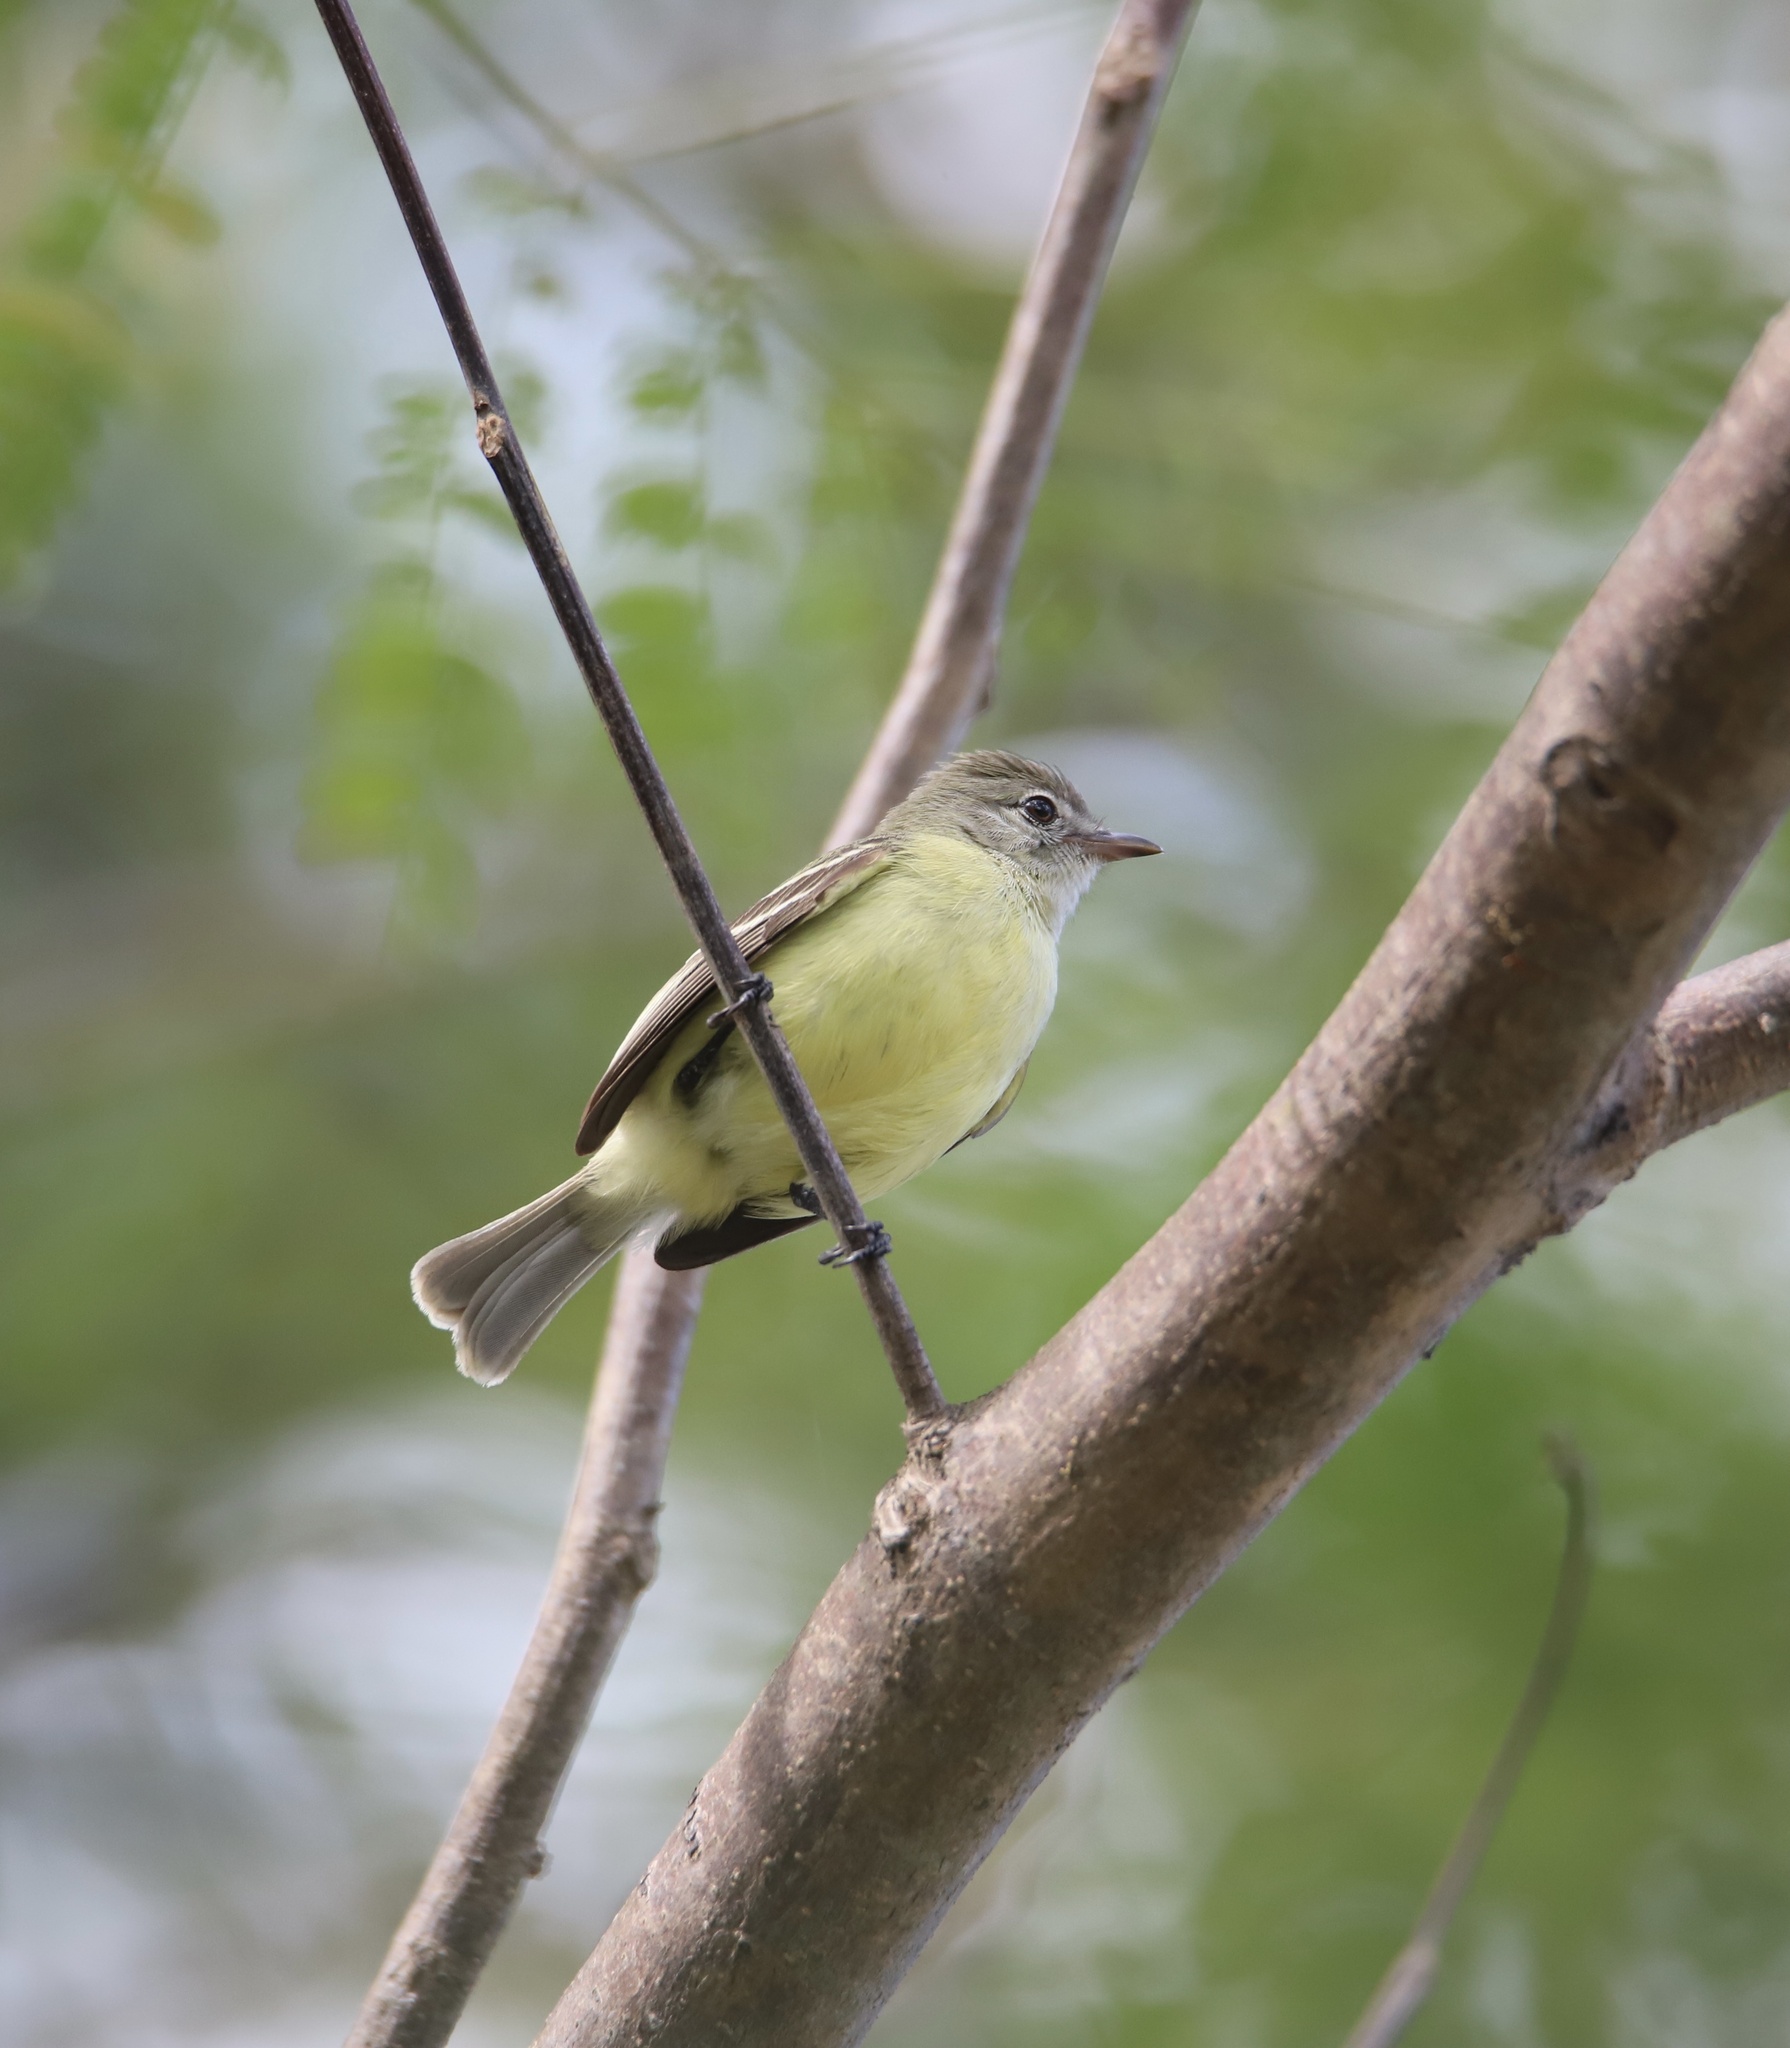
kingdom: Animalia
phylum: Chordata
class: Aves
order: Passeriformes
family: Tyrannidae
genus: Camptostoma
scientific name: Camptostoma obsoletum
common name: Southern beardless-tyrannulet
